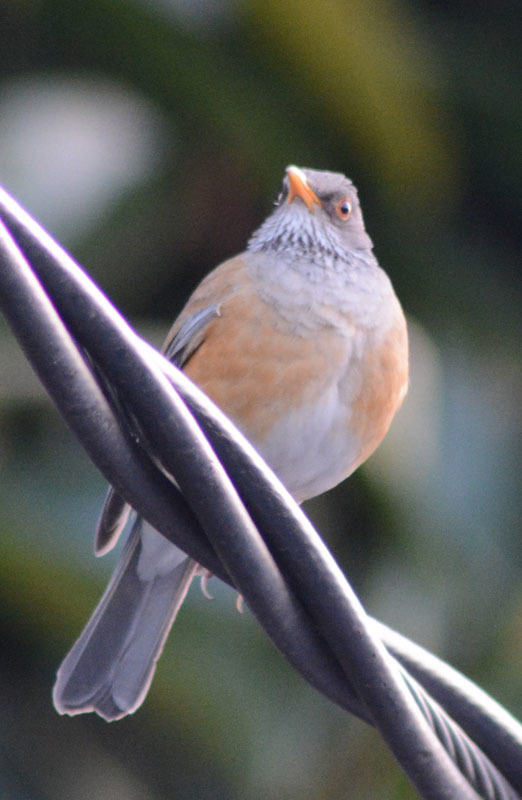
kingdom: Animalia
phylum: Chordata
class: Aves
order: Passeriformes
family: Turdidae
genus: Turdus
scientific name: Turdus rufopalliatus
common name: Rufous-backed robin
